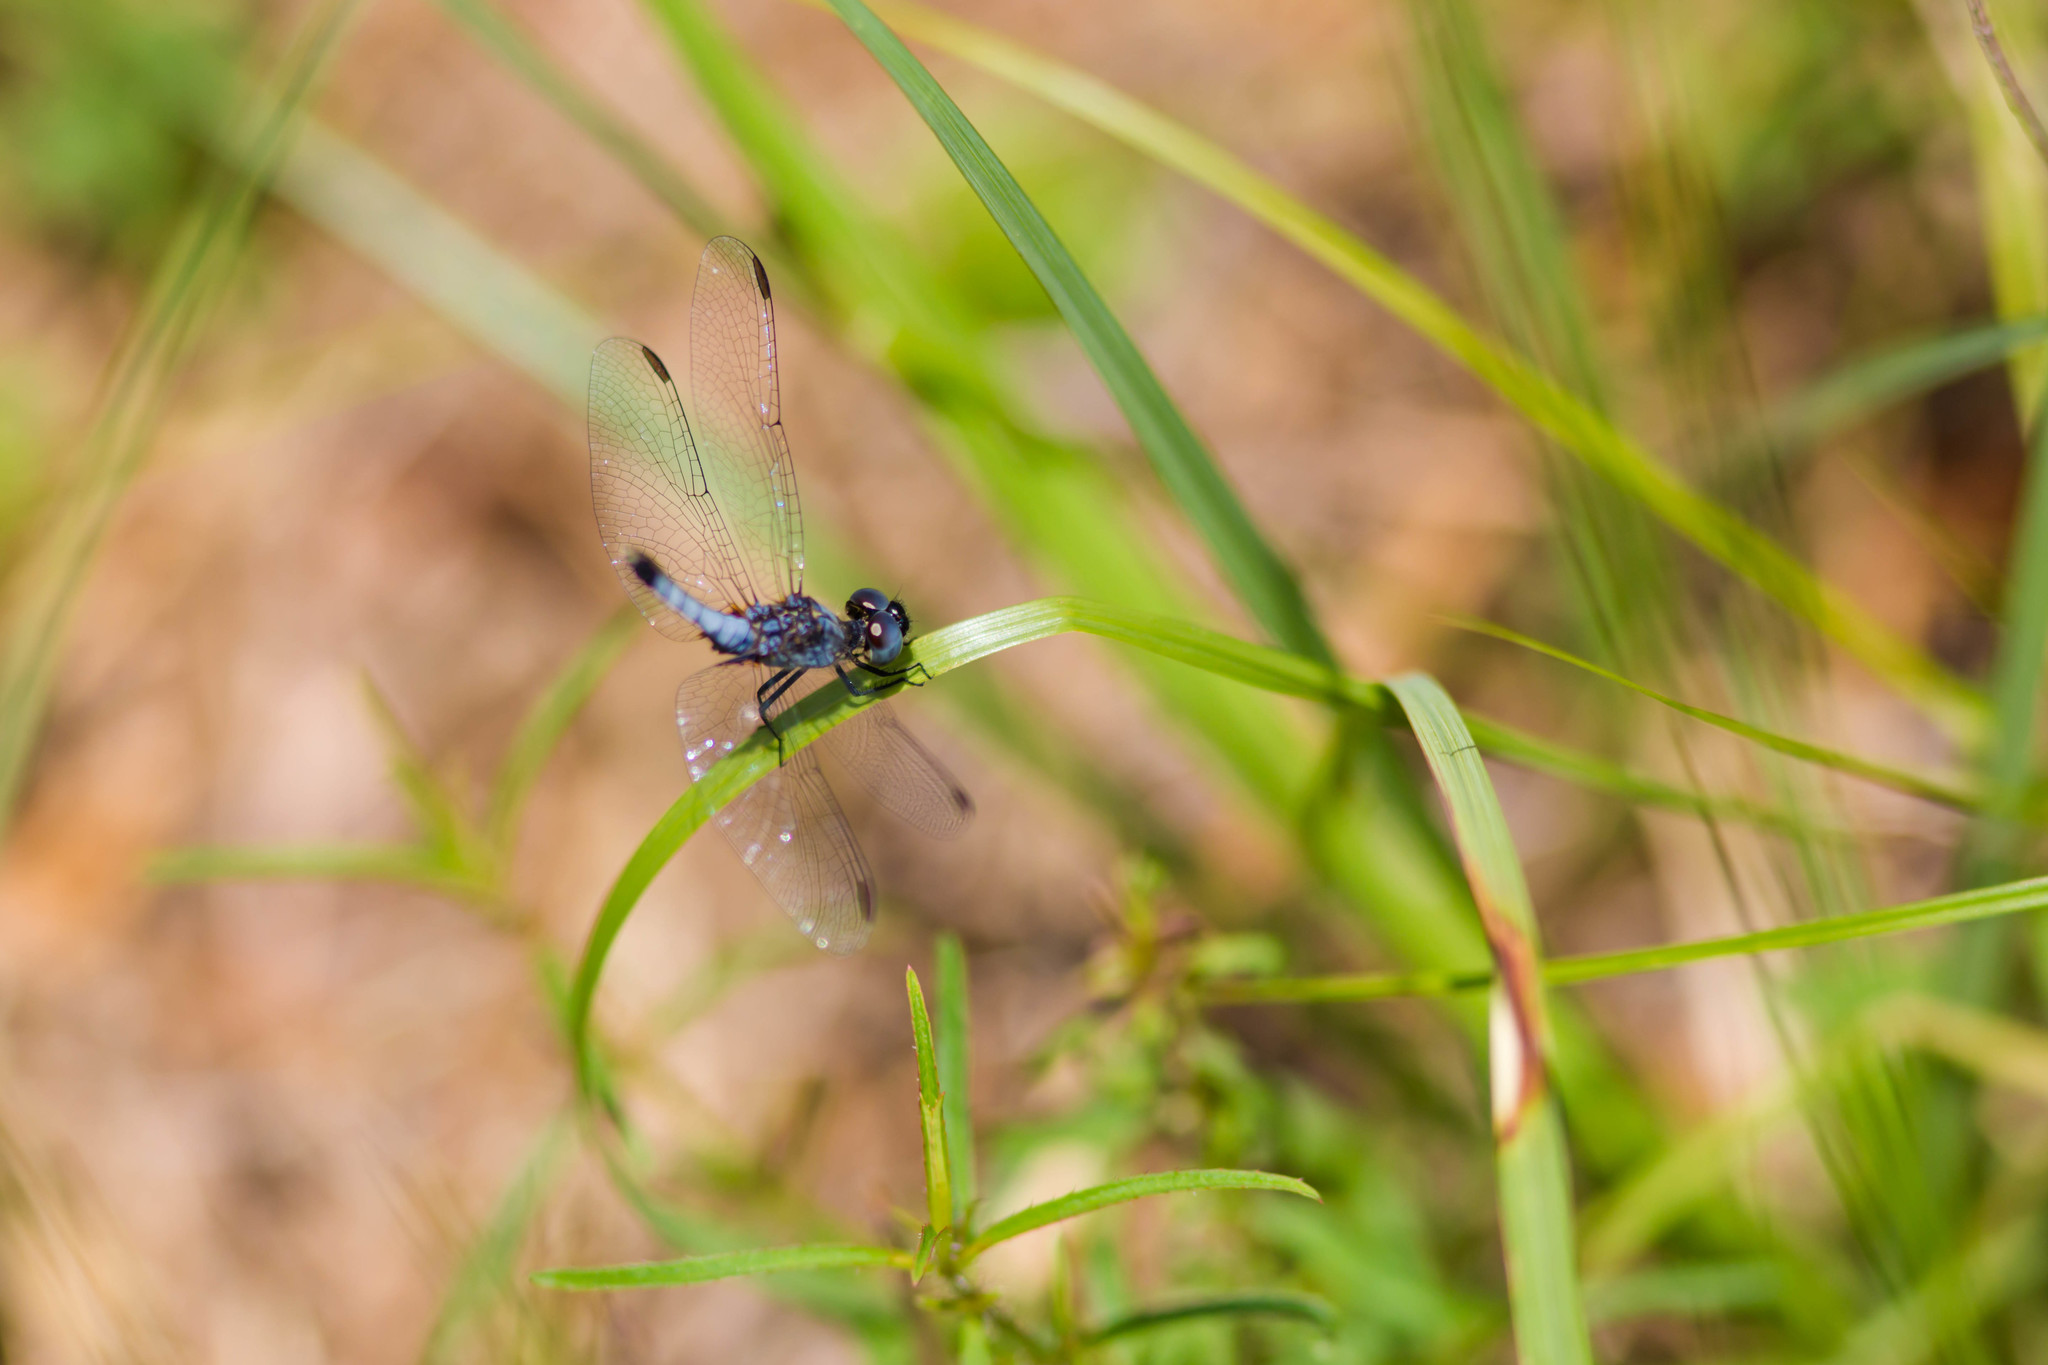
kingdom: Animalia
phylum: Arthropoda
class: Insecta
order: Odonata
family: Libellulidae
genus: Erythrodiplax
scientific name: Erythrodiplax minuscula
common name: Little blue dragonlet
